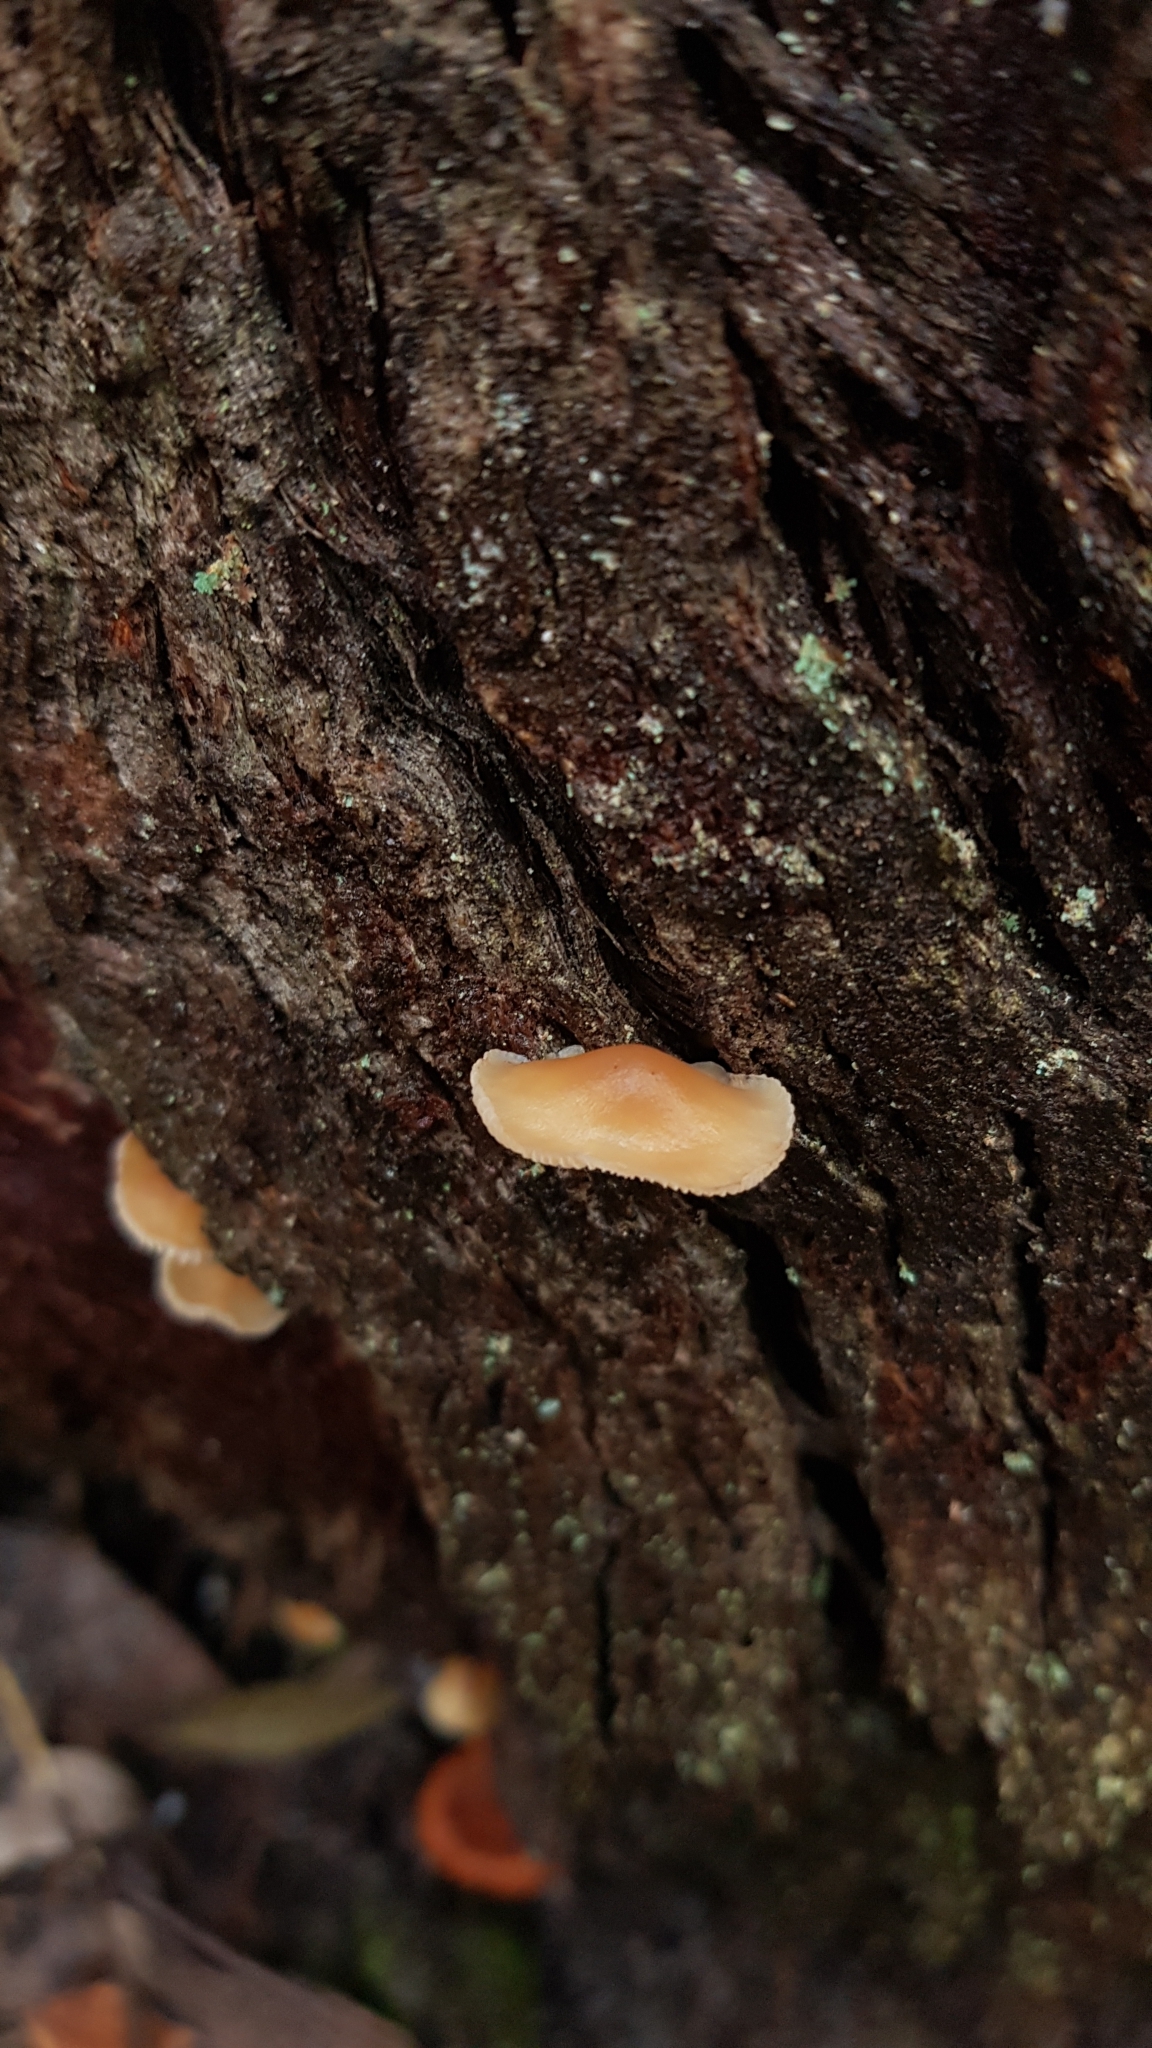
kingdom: Fungi
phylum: Basidiomycota
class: Agaricomycetes
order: Agaricales
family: Omphalotaceae
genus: Rhodocollybia
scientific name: Rhodocollybia
